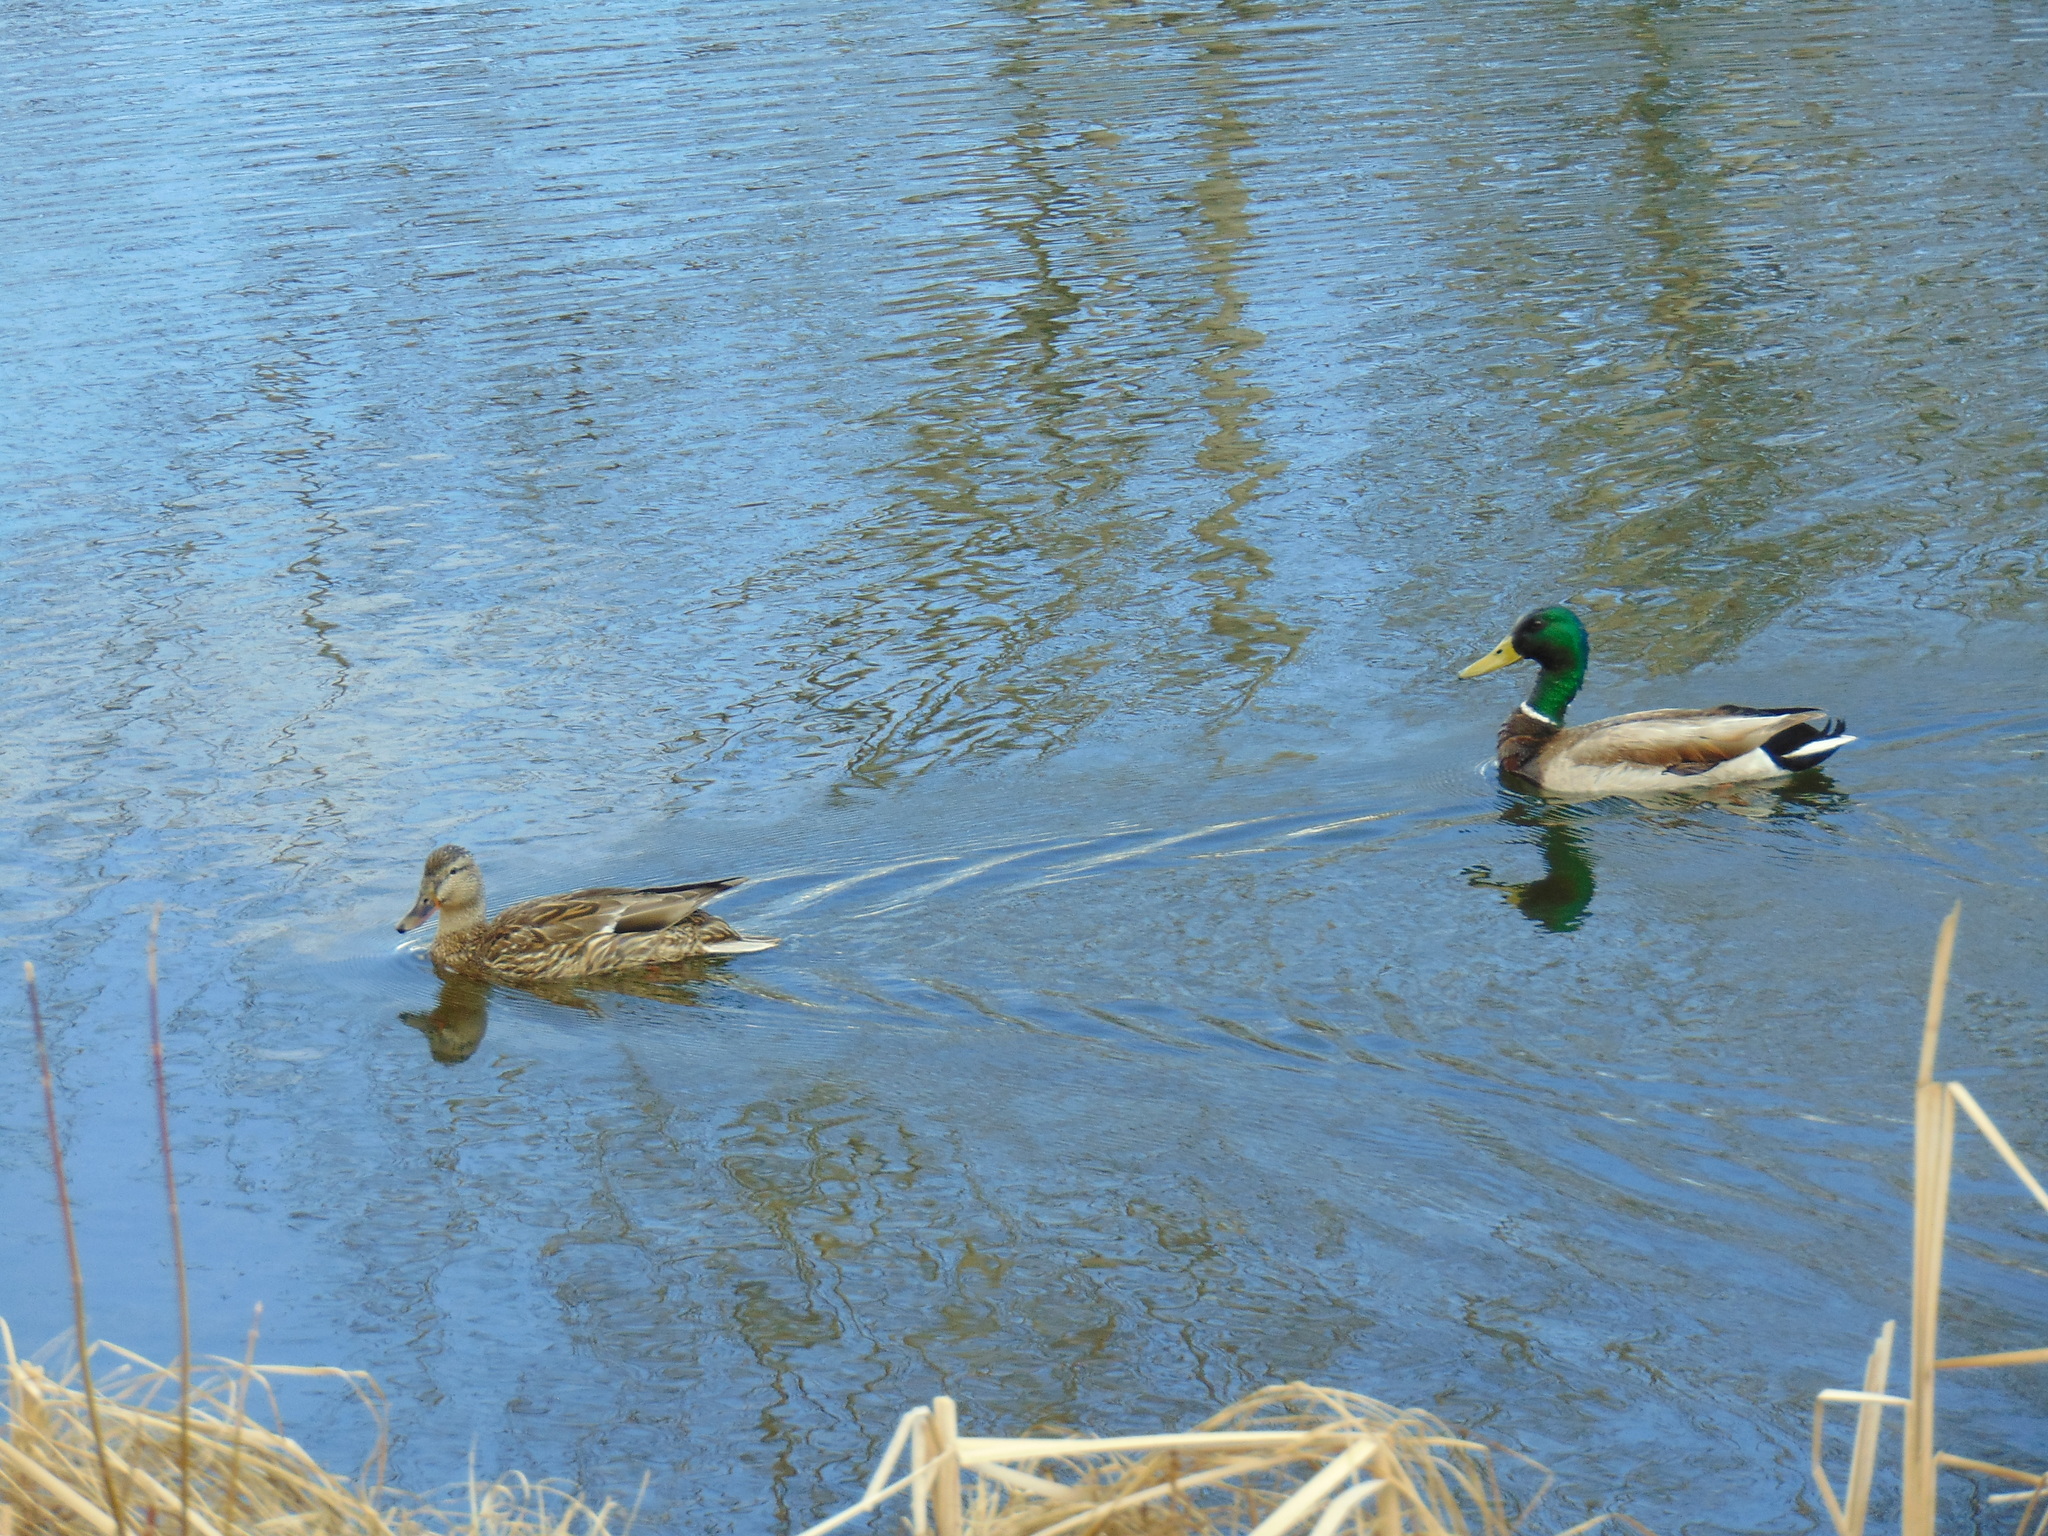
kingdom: Animalia
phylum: Chordata
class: Aves
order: Anseriformes
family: Anatidae
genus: Anas
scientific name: Anas platyrhynchos
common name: Mallard
